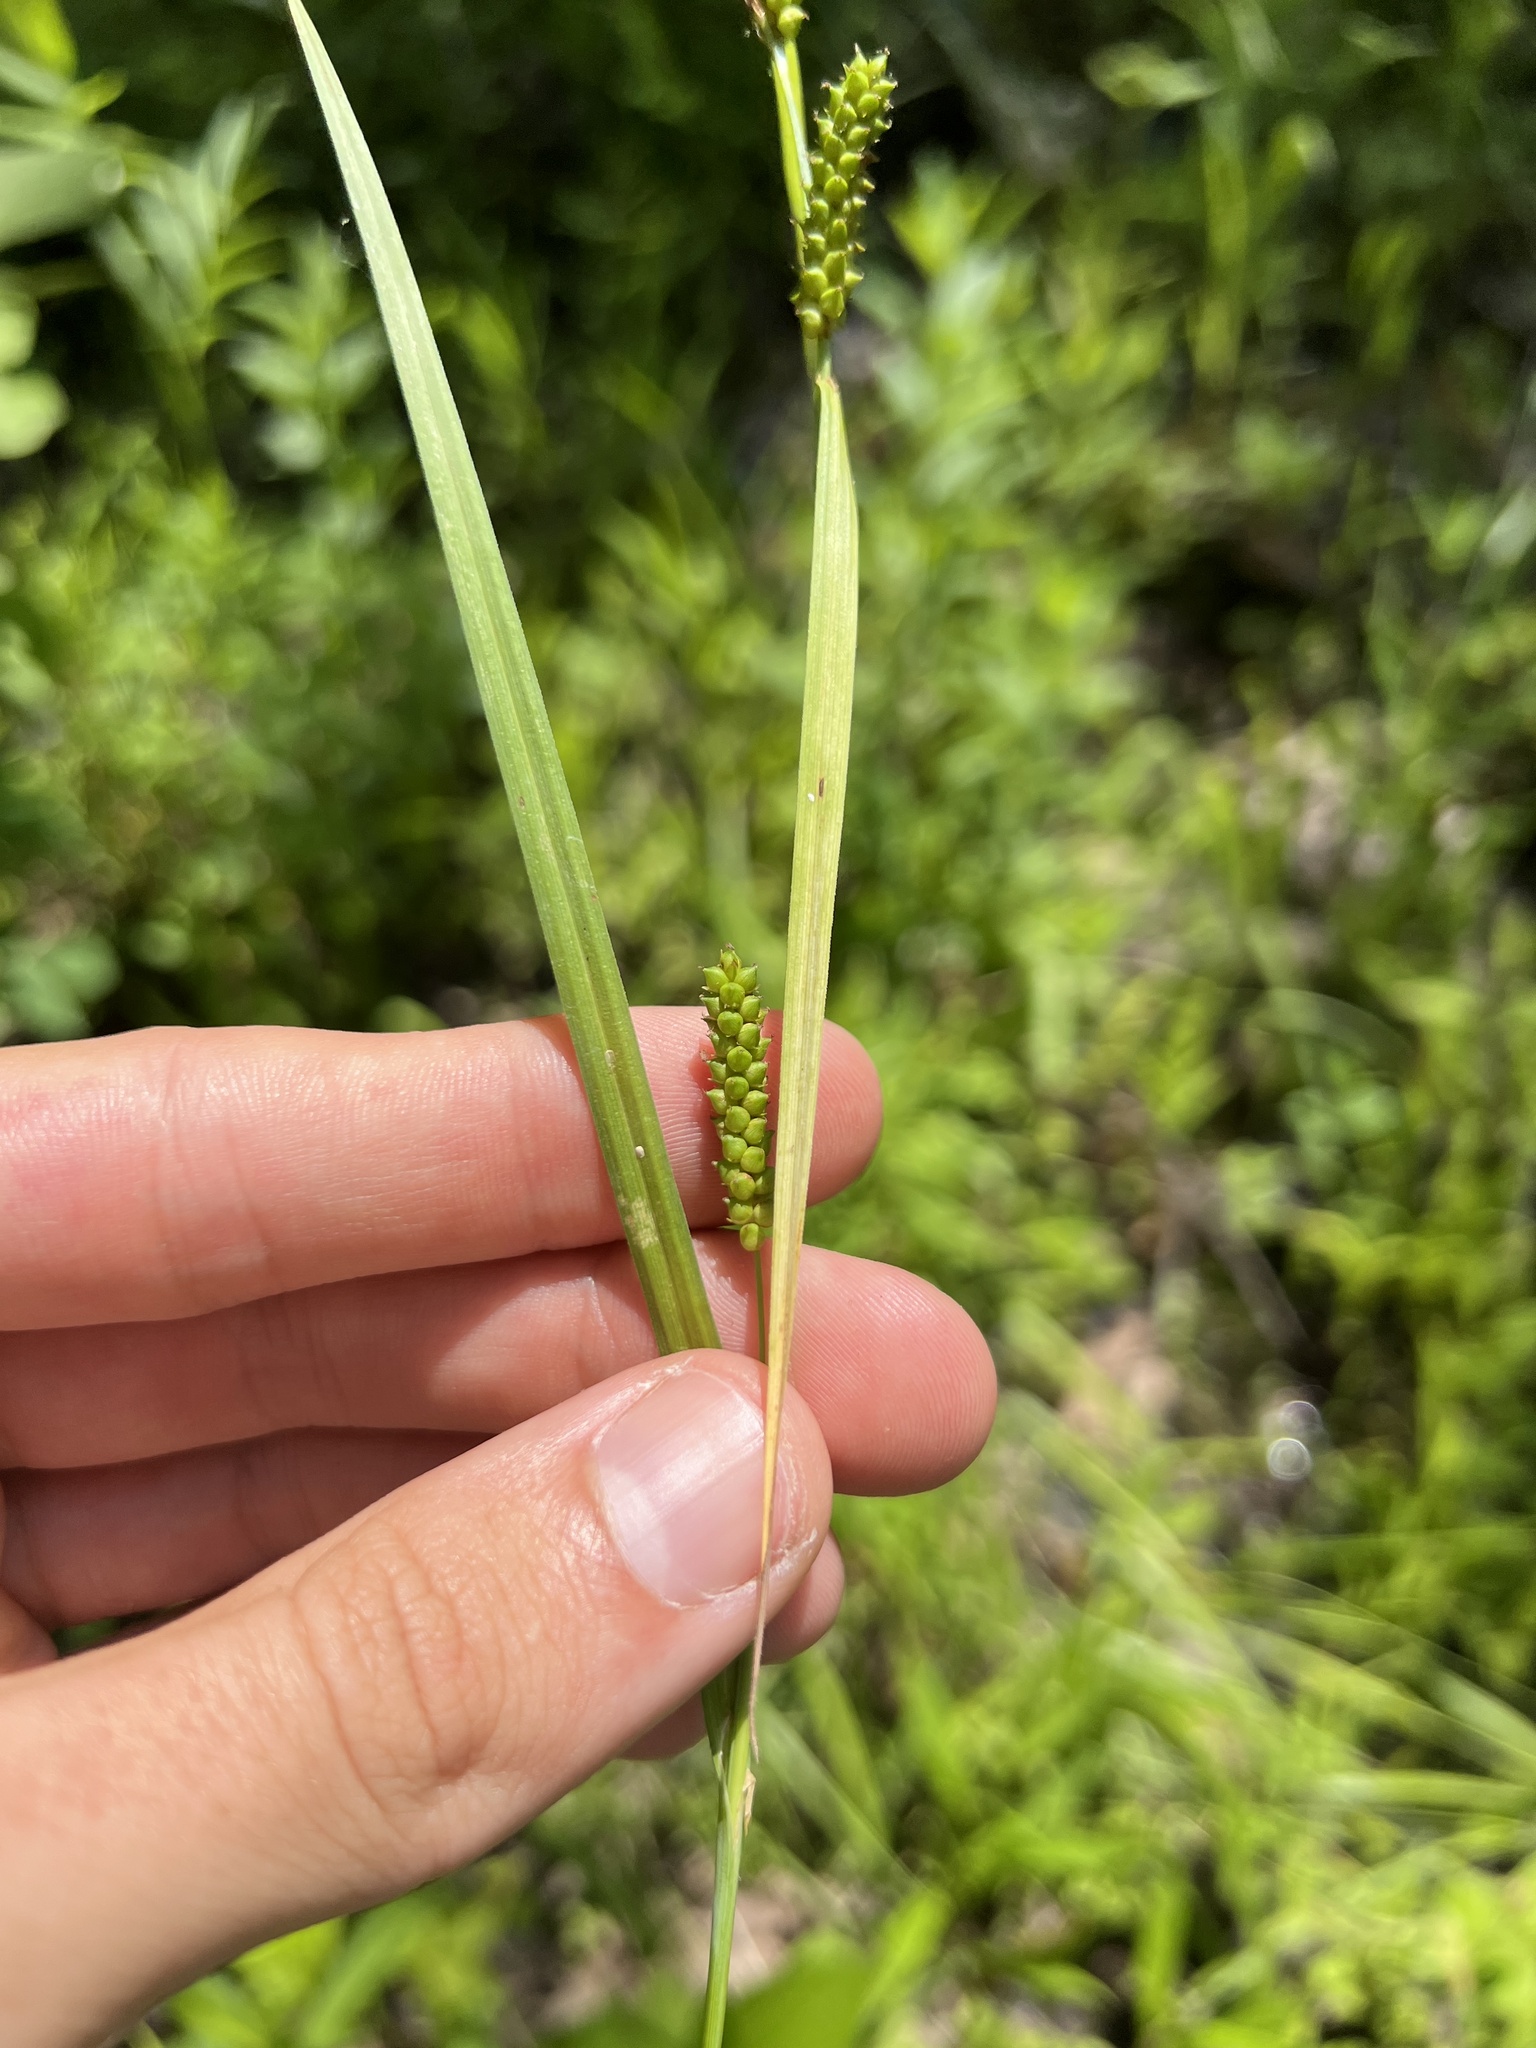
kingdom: Plantae
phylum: Tracheophyta
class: Liliopsida
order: Poales
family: Cyperaceae
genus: Carex
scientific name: Carex granularis
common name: Granular sedge
